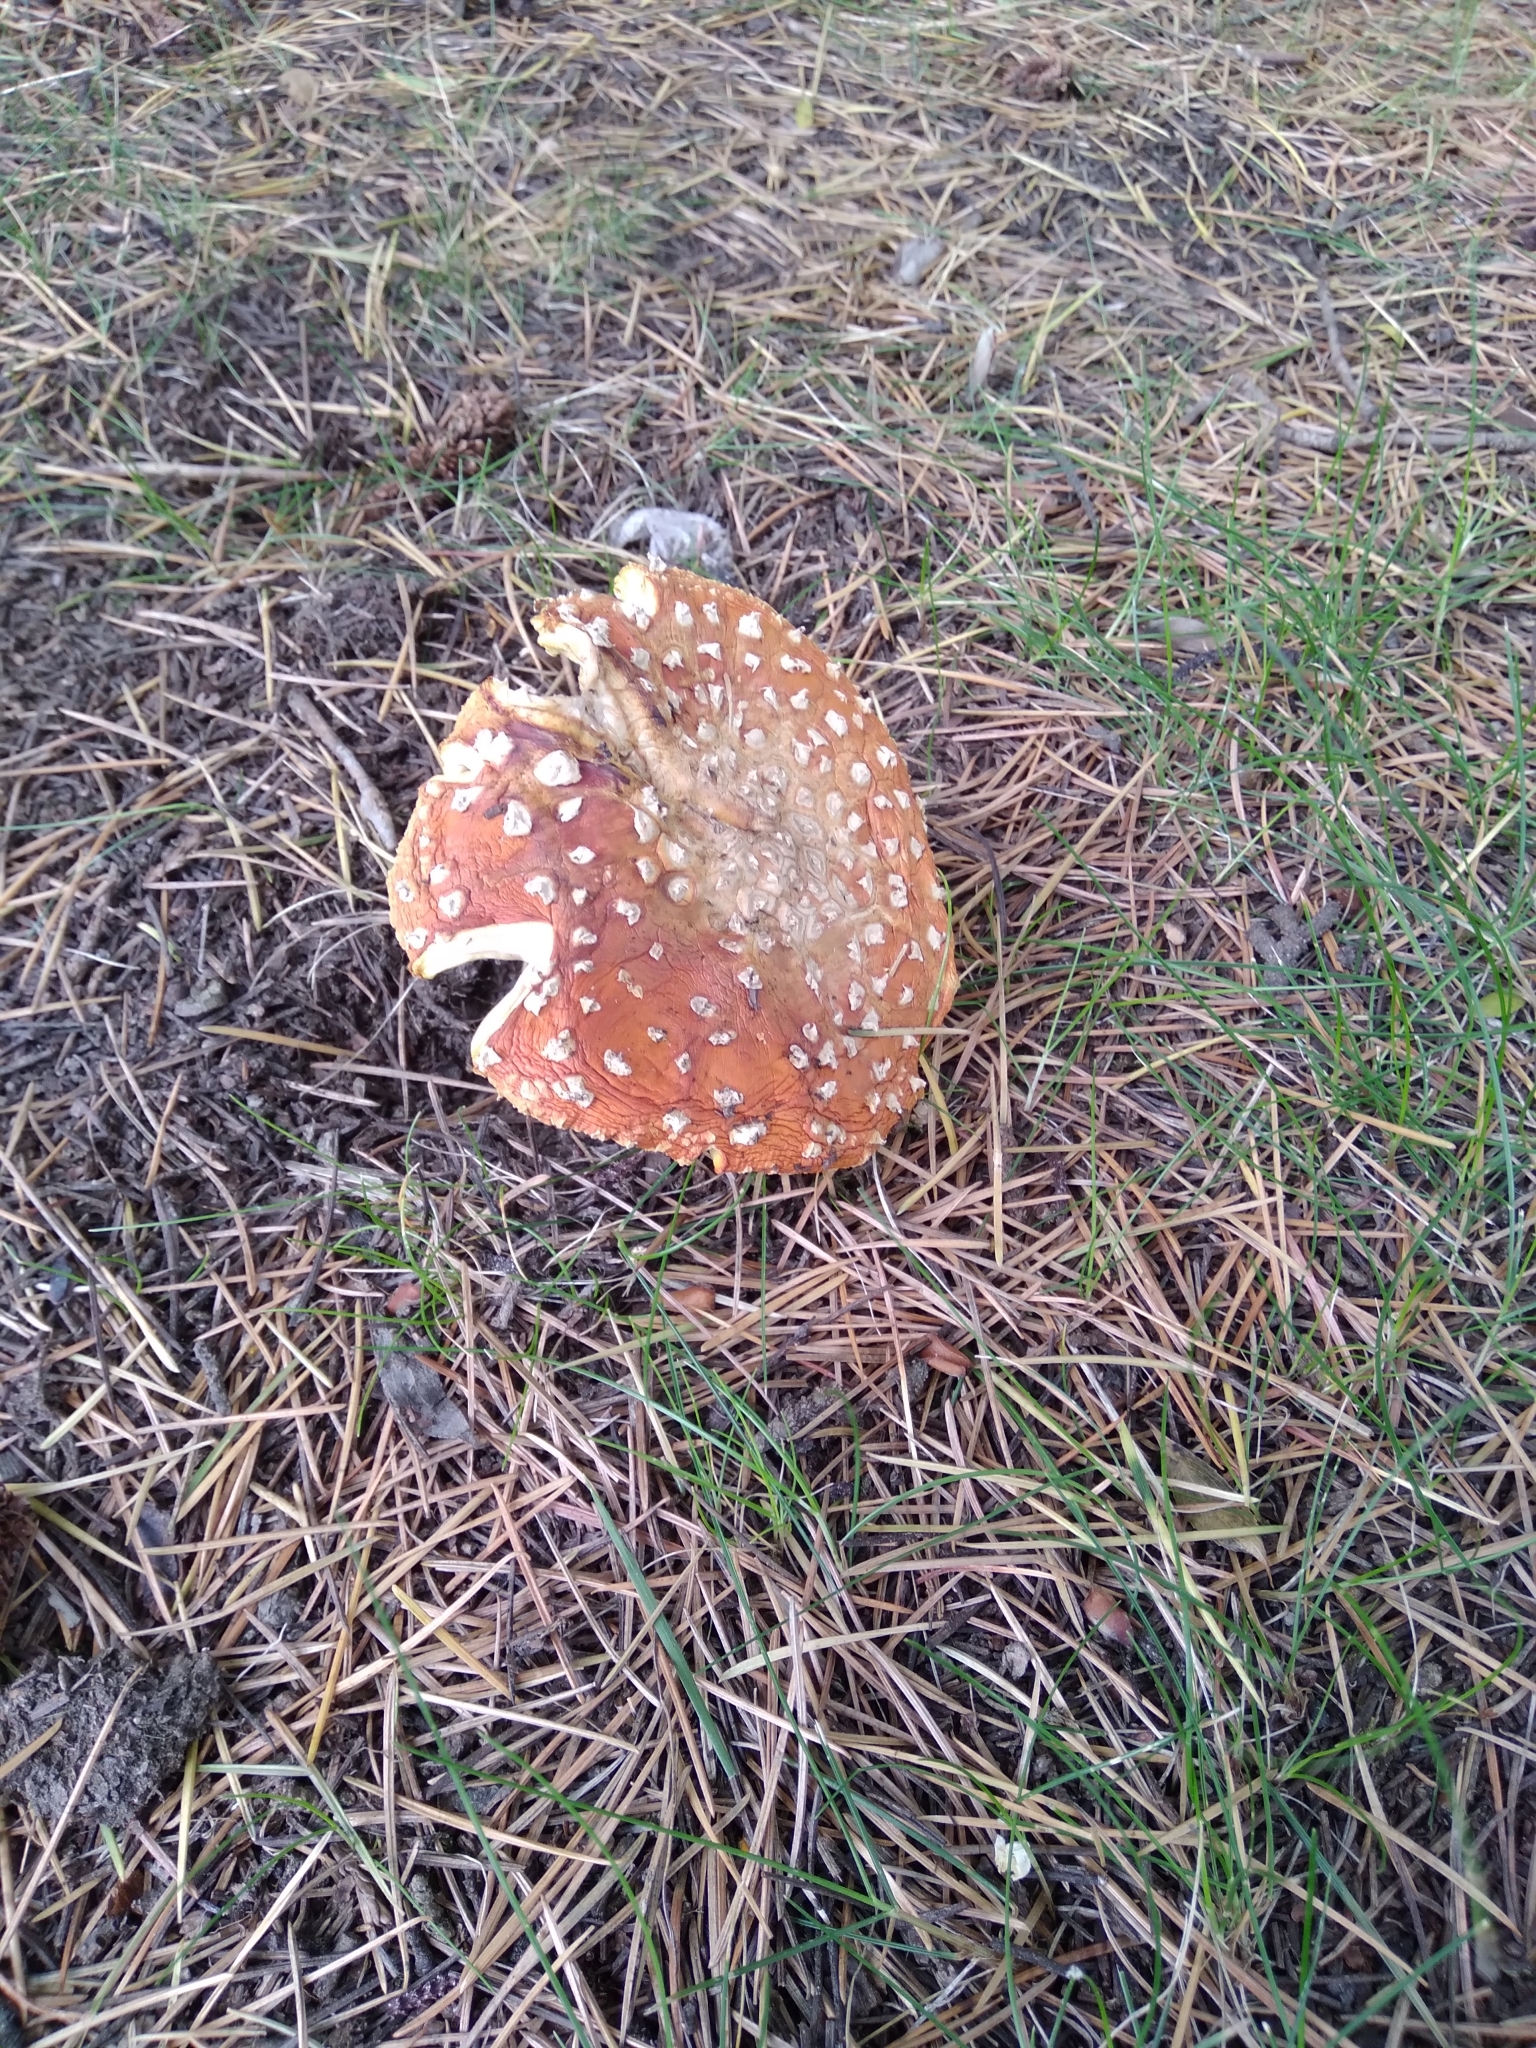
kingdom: Fungi
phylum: Basidiomycota
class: Agaricomycetes
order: Agaricales
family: Amanitaceae
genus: Amanita
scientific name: Amanita muscaria
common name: Fly agaric
